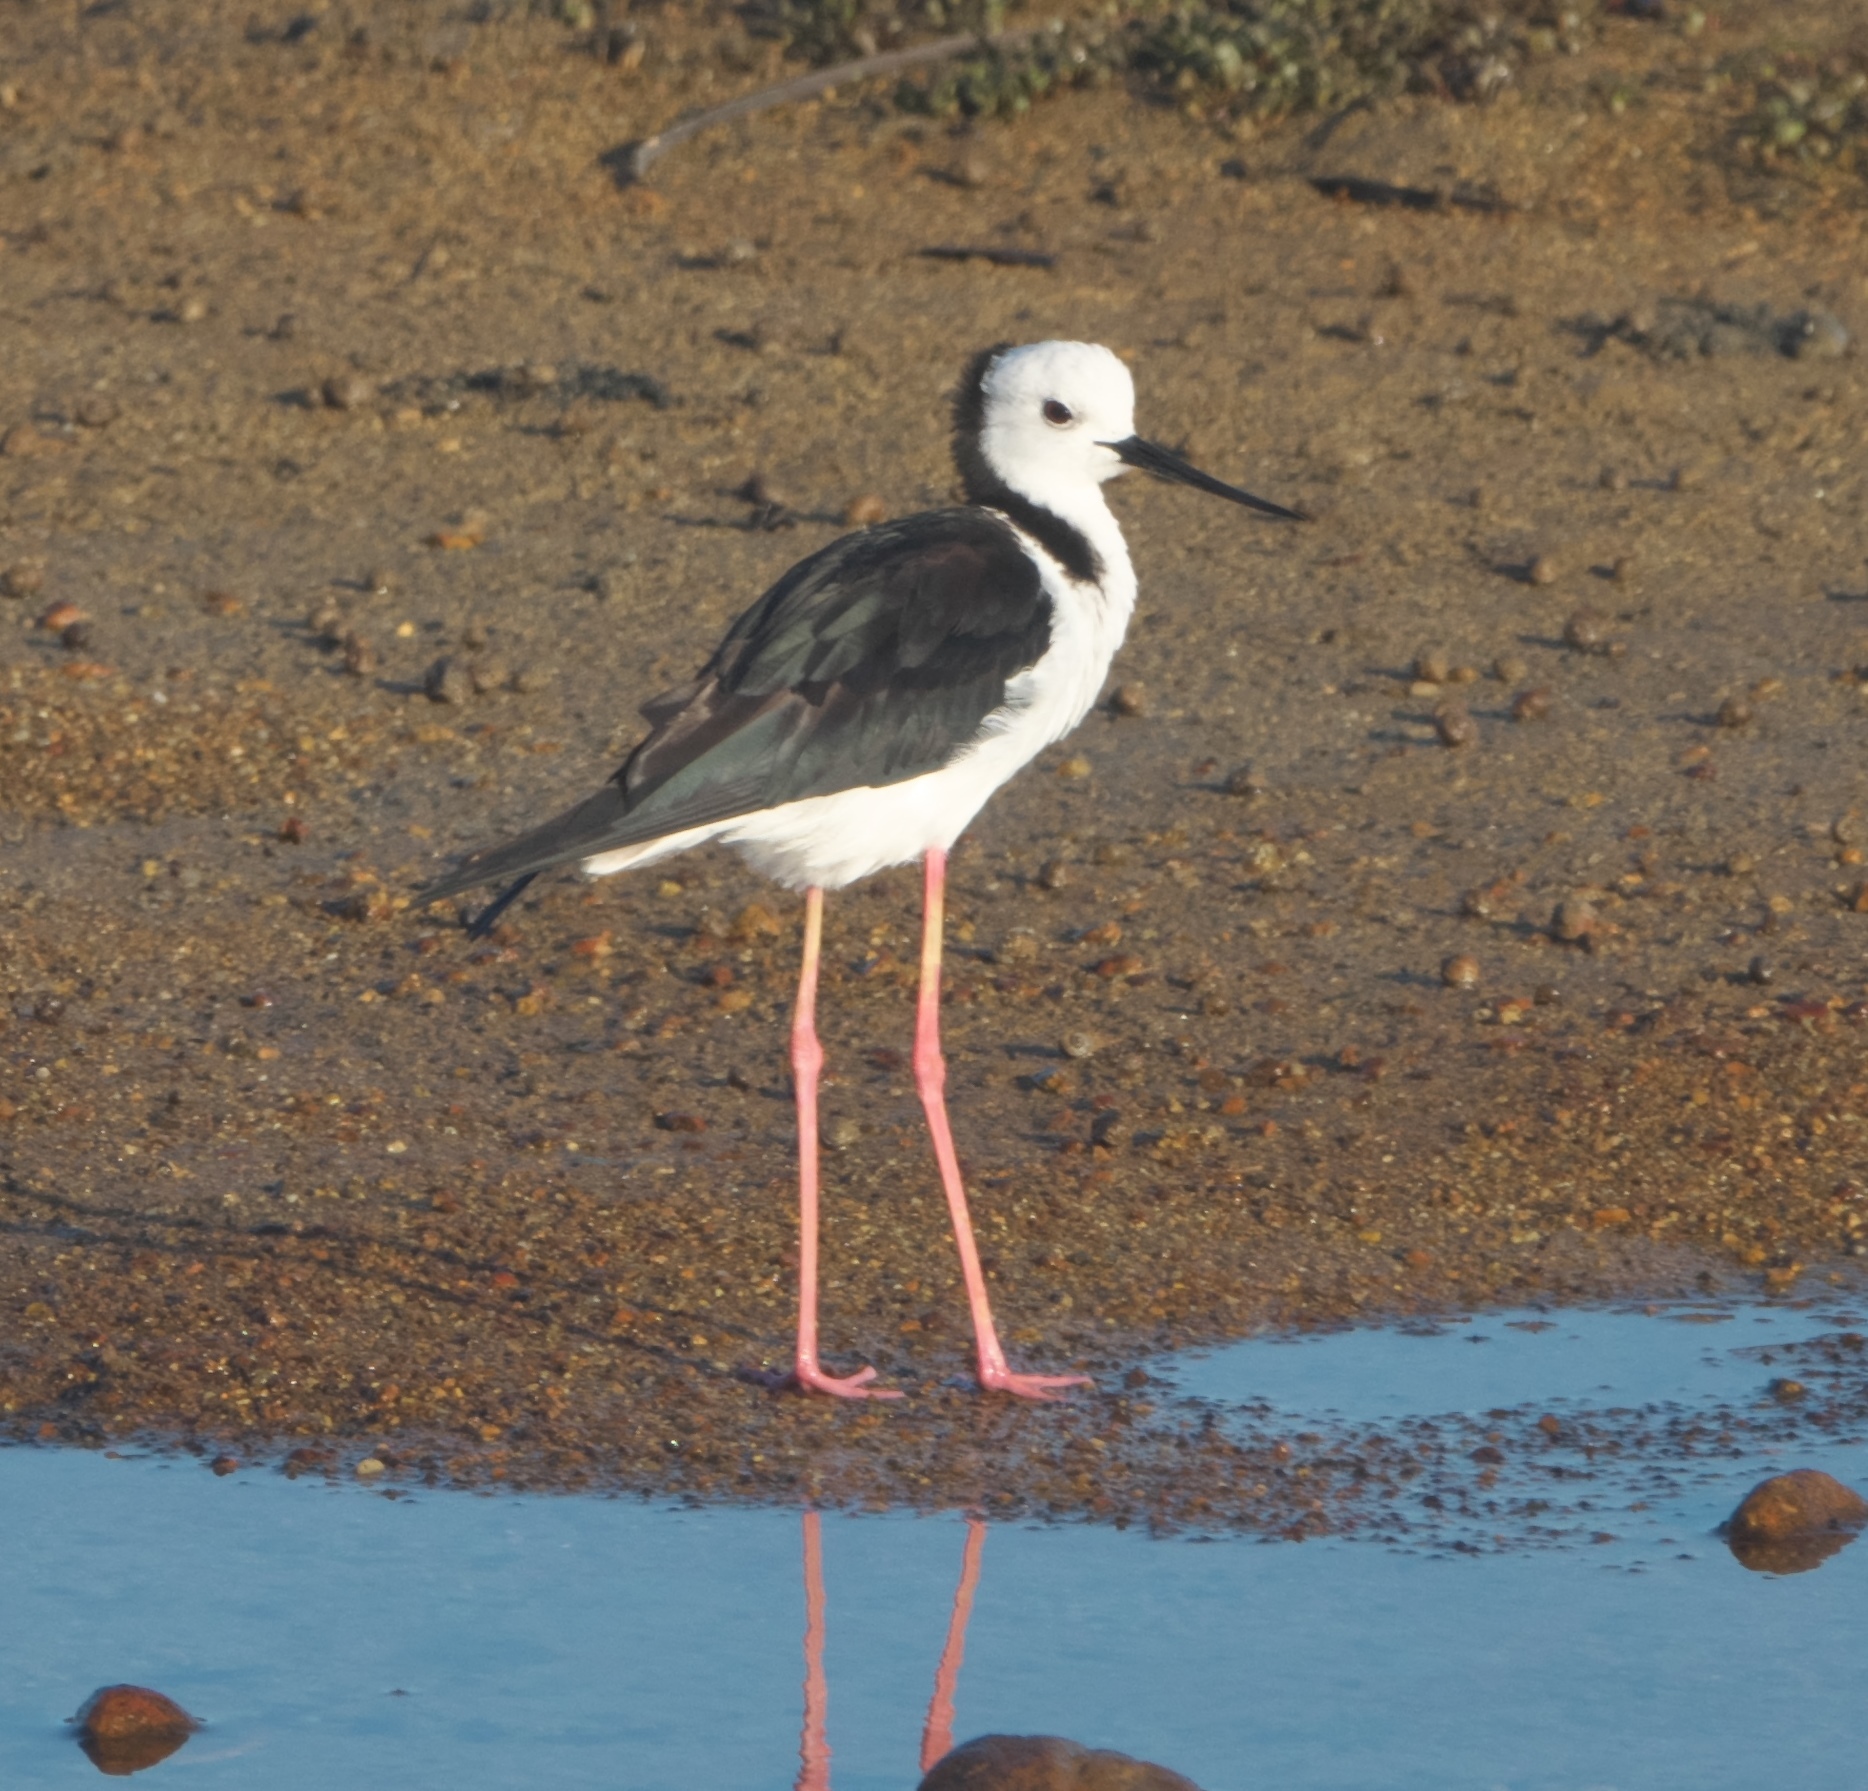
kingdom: Animalia
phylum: Chordata
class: Aves
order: Charadriiformes
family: Recurvirostridae
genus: Himantopus
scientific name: Himantopus leucocephalus
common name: White-headed stilt
